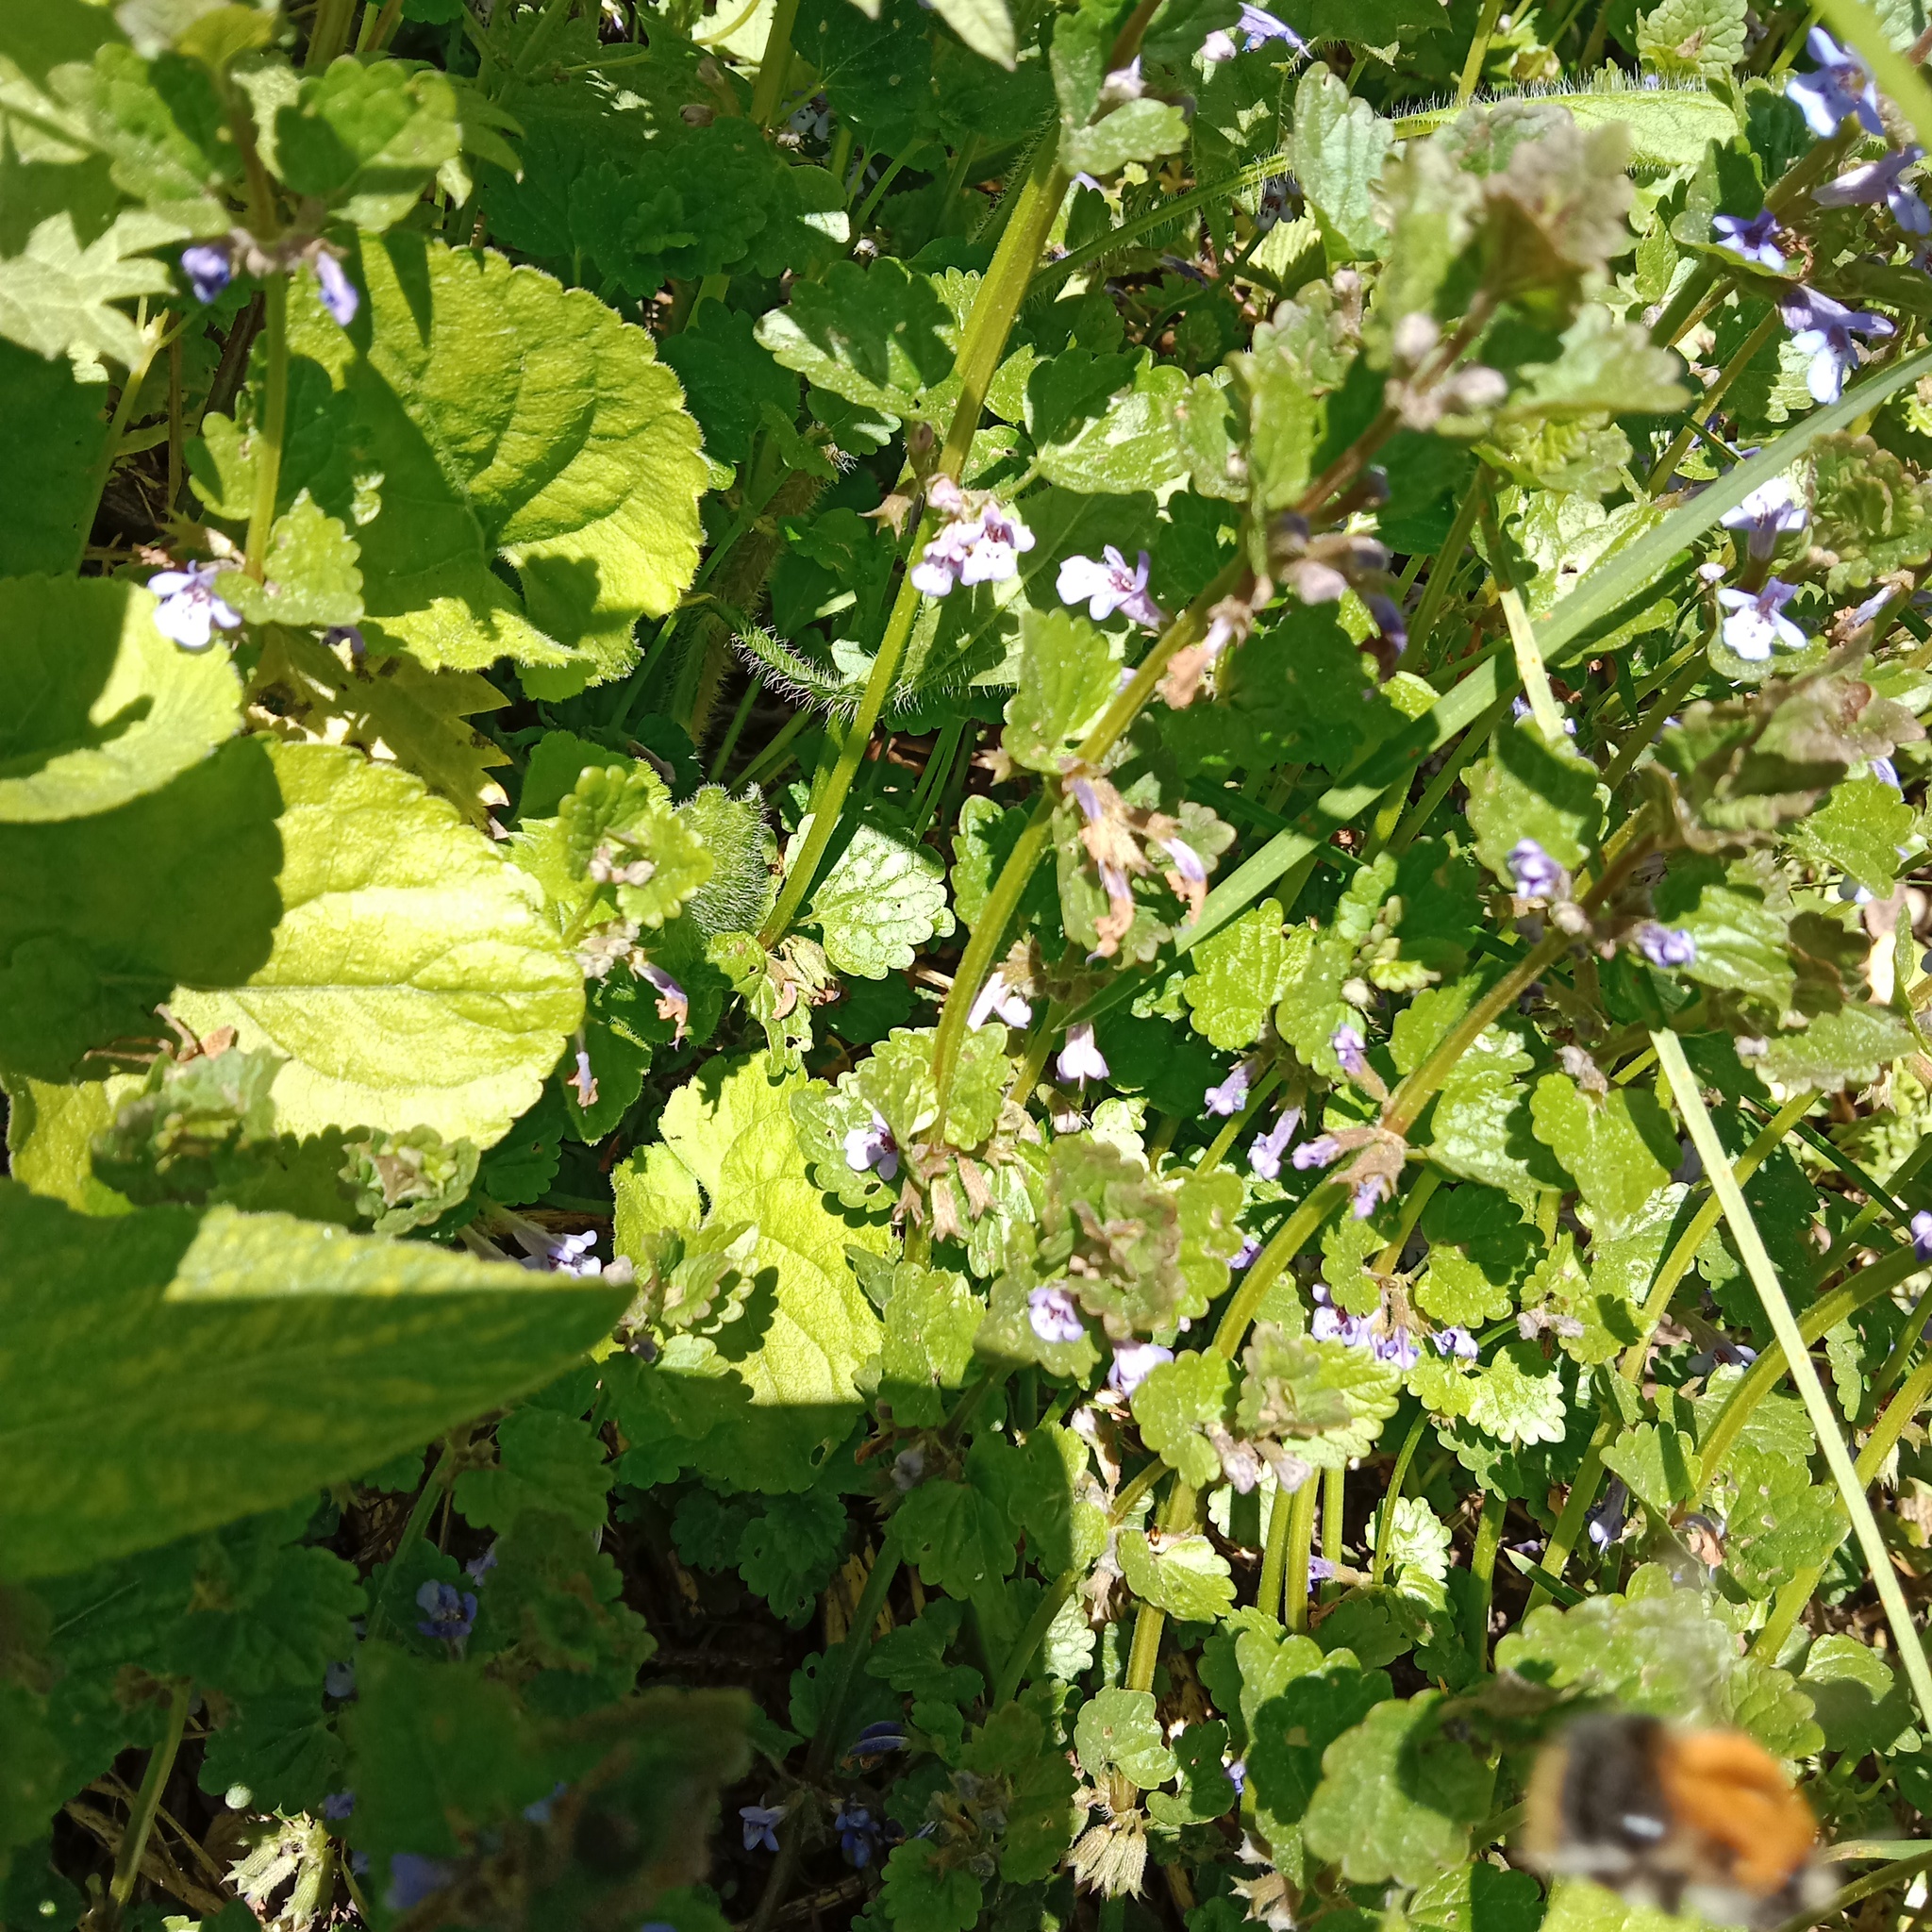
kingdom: Animalia
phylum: Arthropoda
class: Insecta
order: Hymenoptera
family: Apidae
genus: Bombus
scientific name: Bombus pascuorum
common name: Common carder bee
